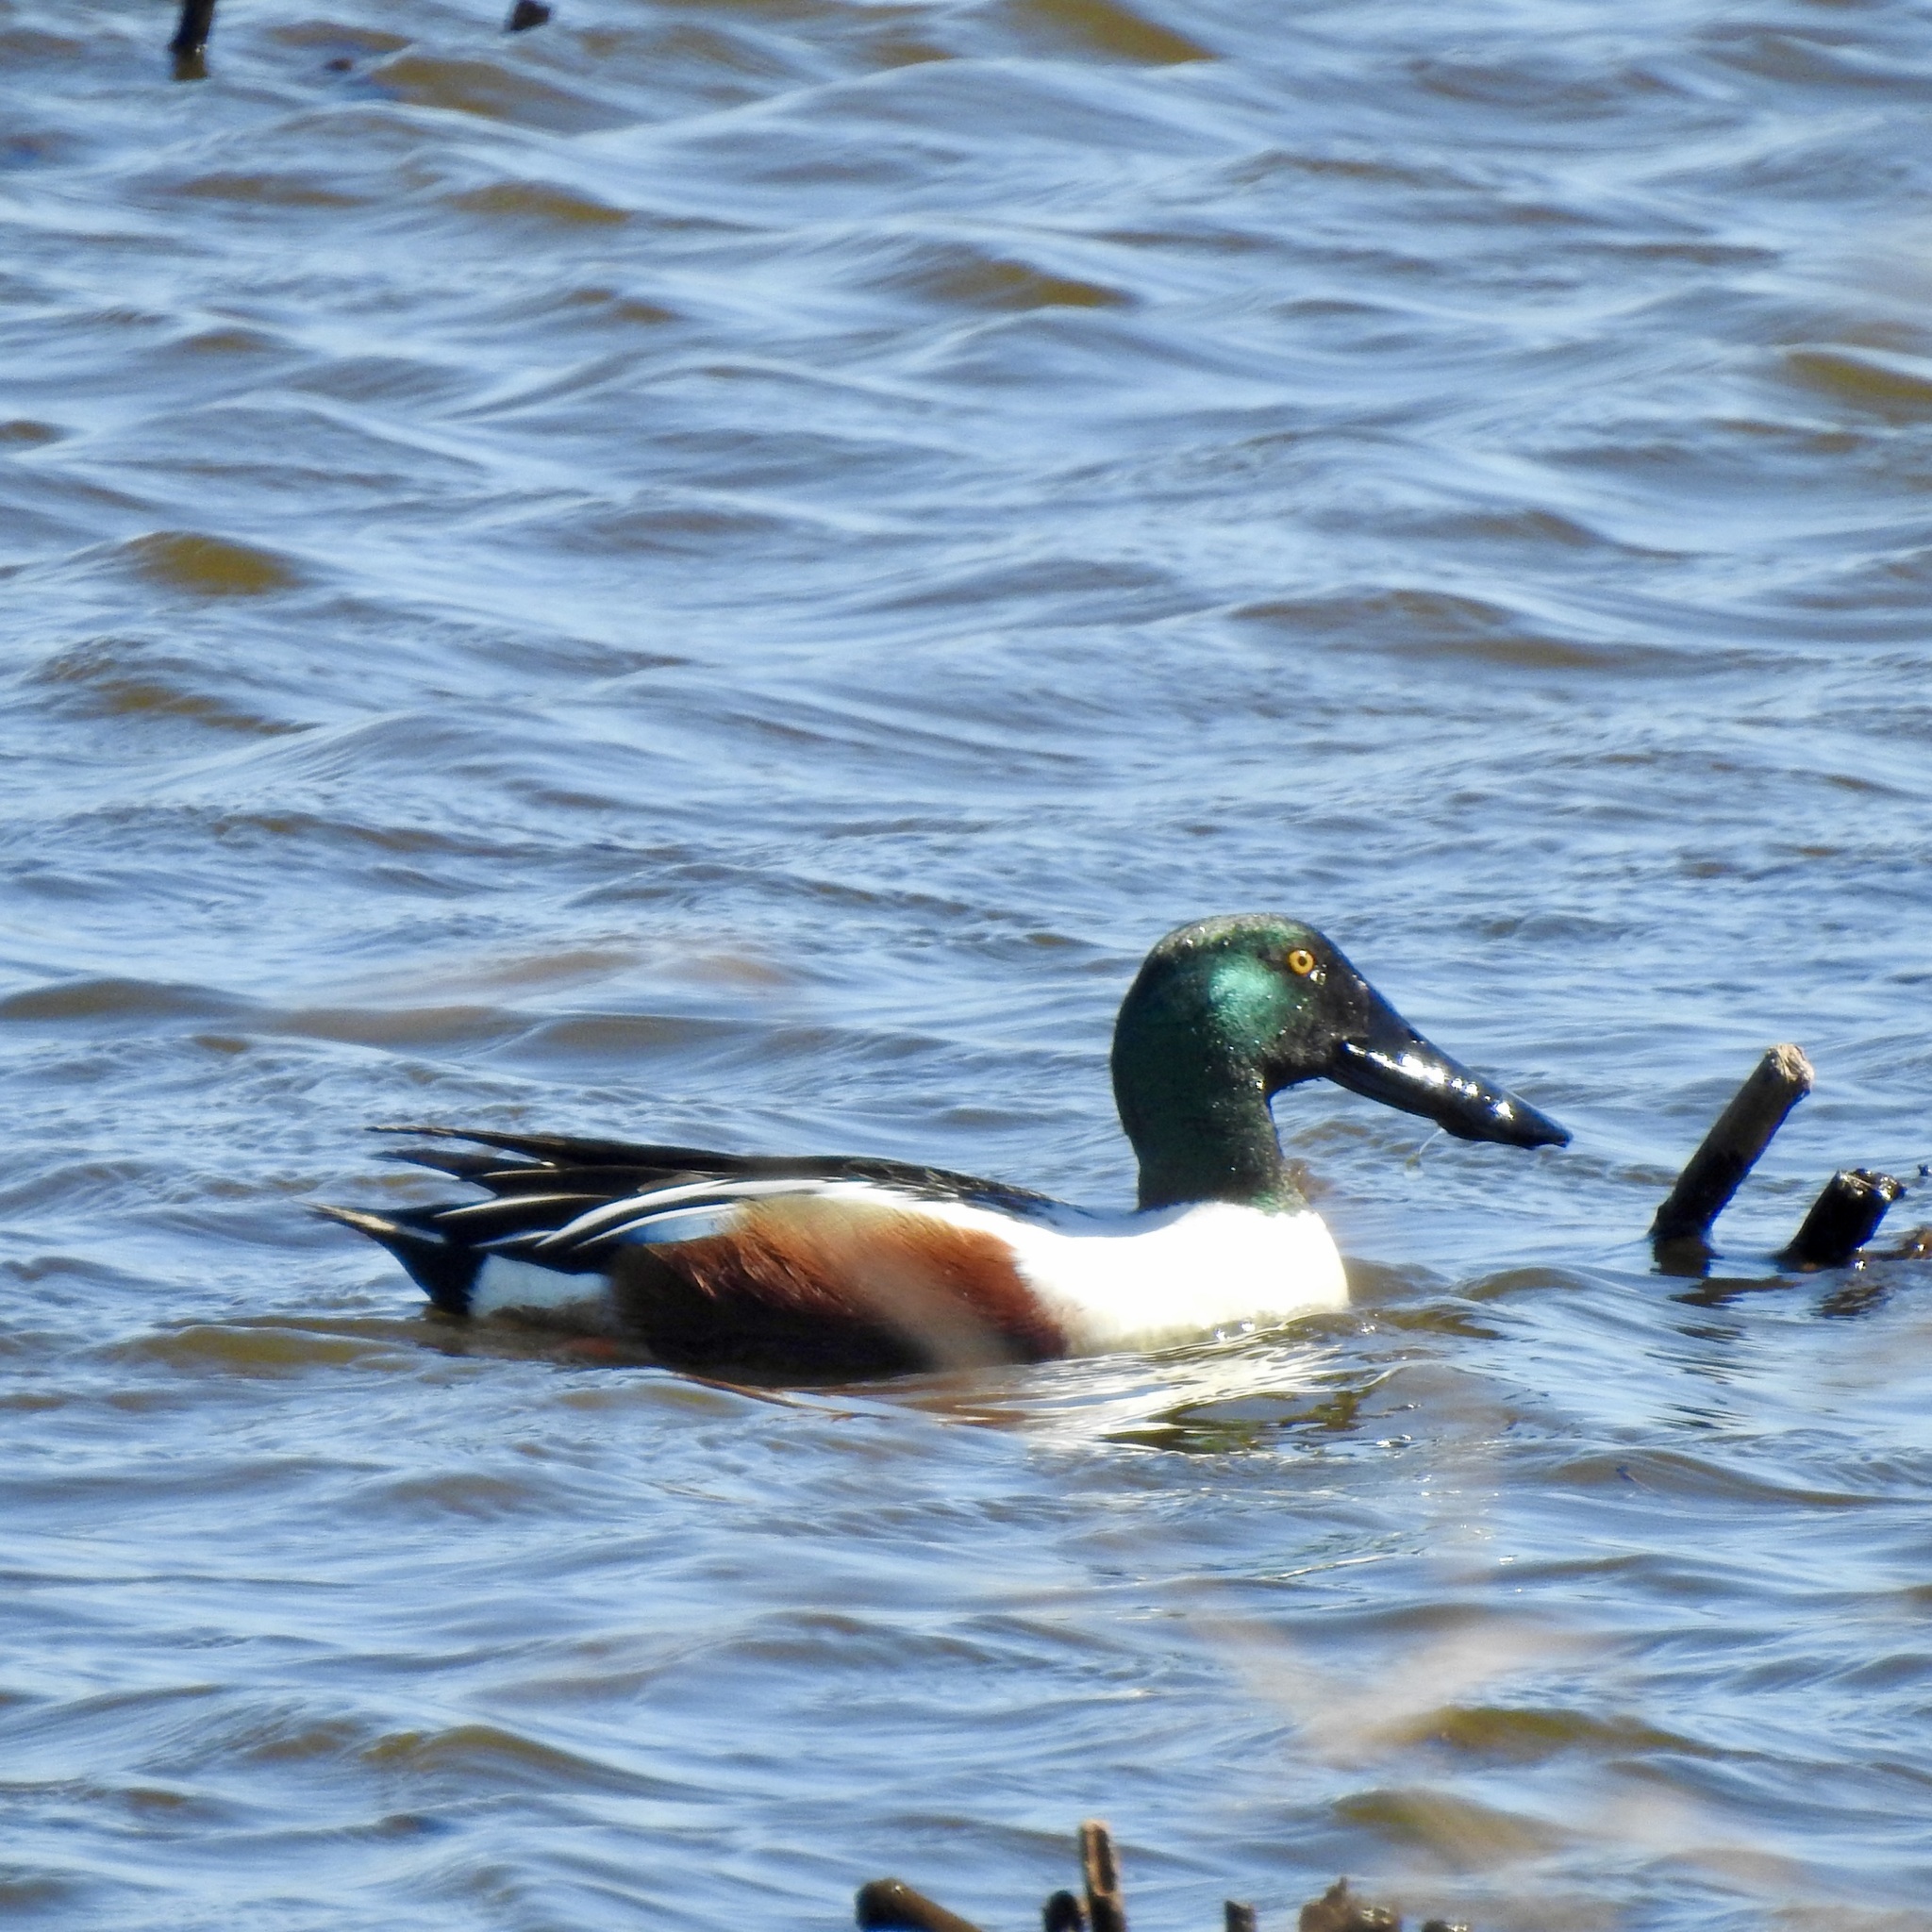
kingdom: Animalia
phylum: Chordata
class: Aves
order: Anseriformes
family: Anatidae
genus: Spatula
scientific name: Spatula clypeata
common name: Northern shoveler
